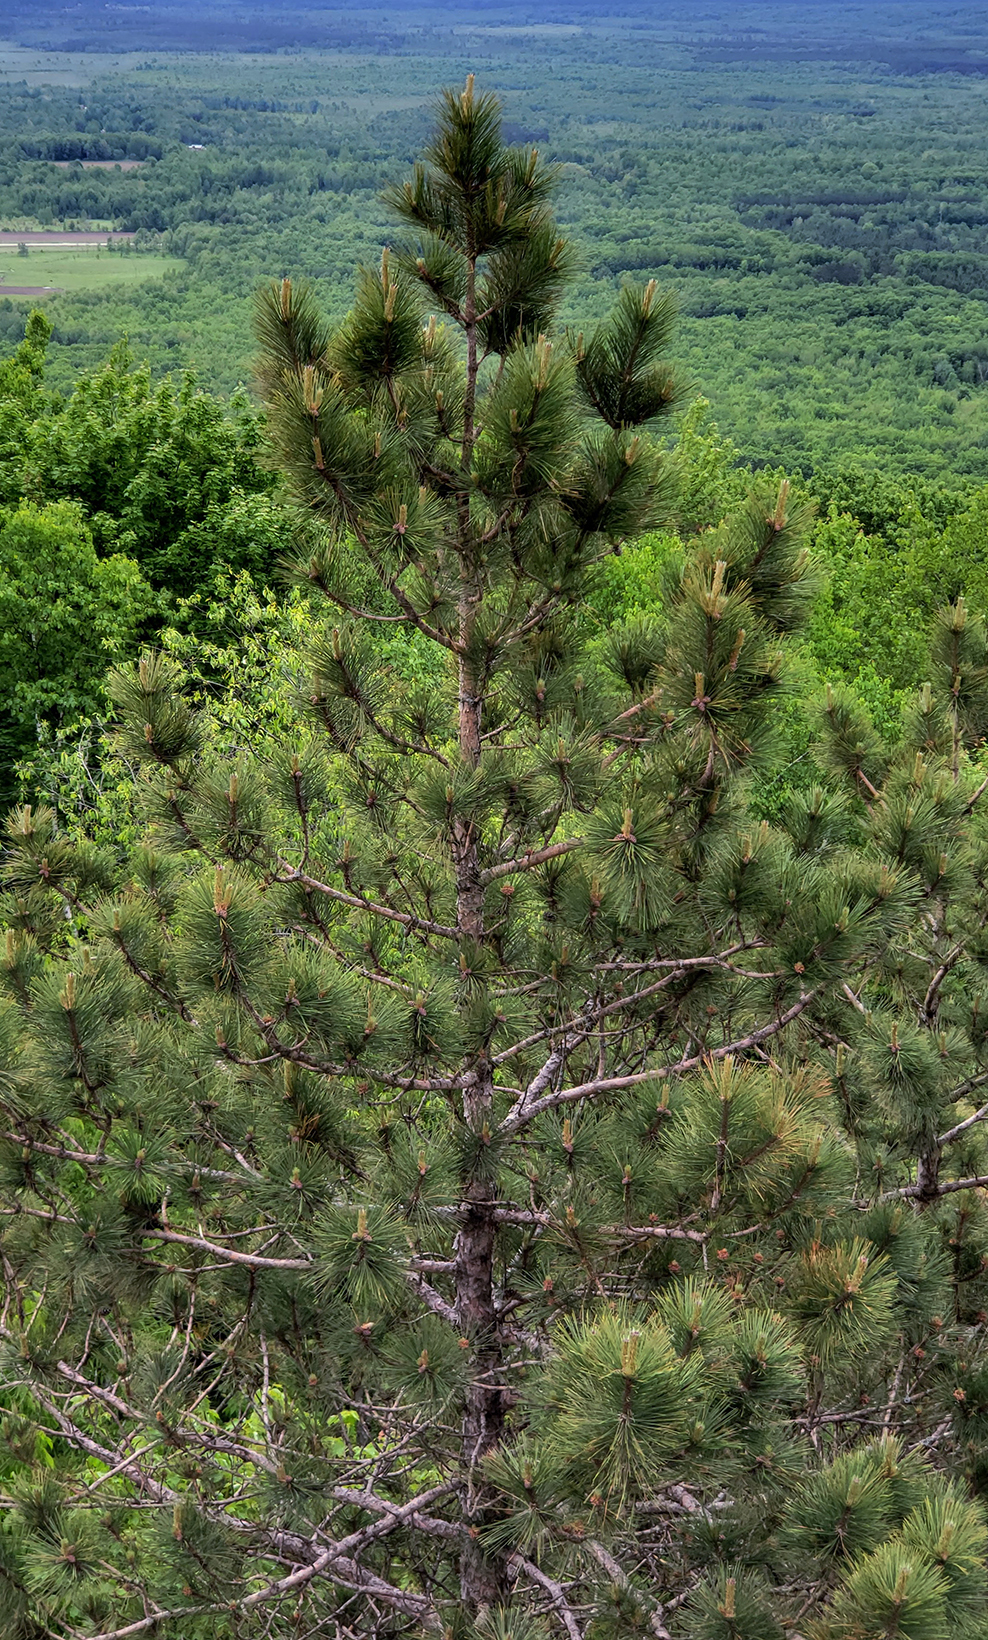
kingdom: Plantae
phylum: Tracheophyta
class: Pinopsida
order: Pinales
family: Pinaceae
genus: Pinus
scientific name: Pinus resinosa
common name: Norway pine
